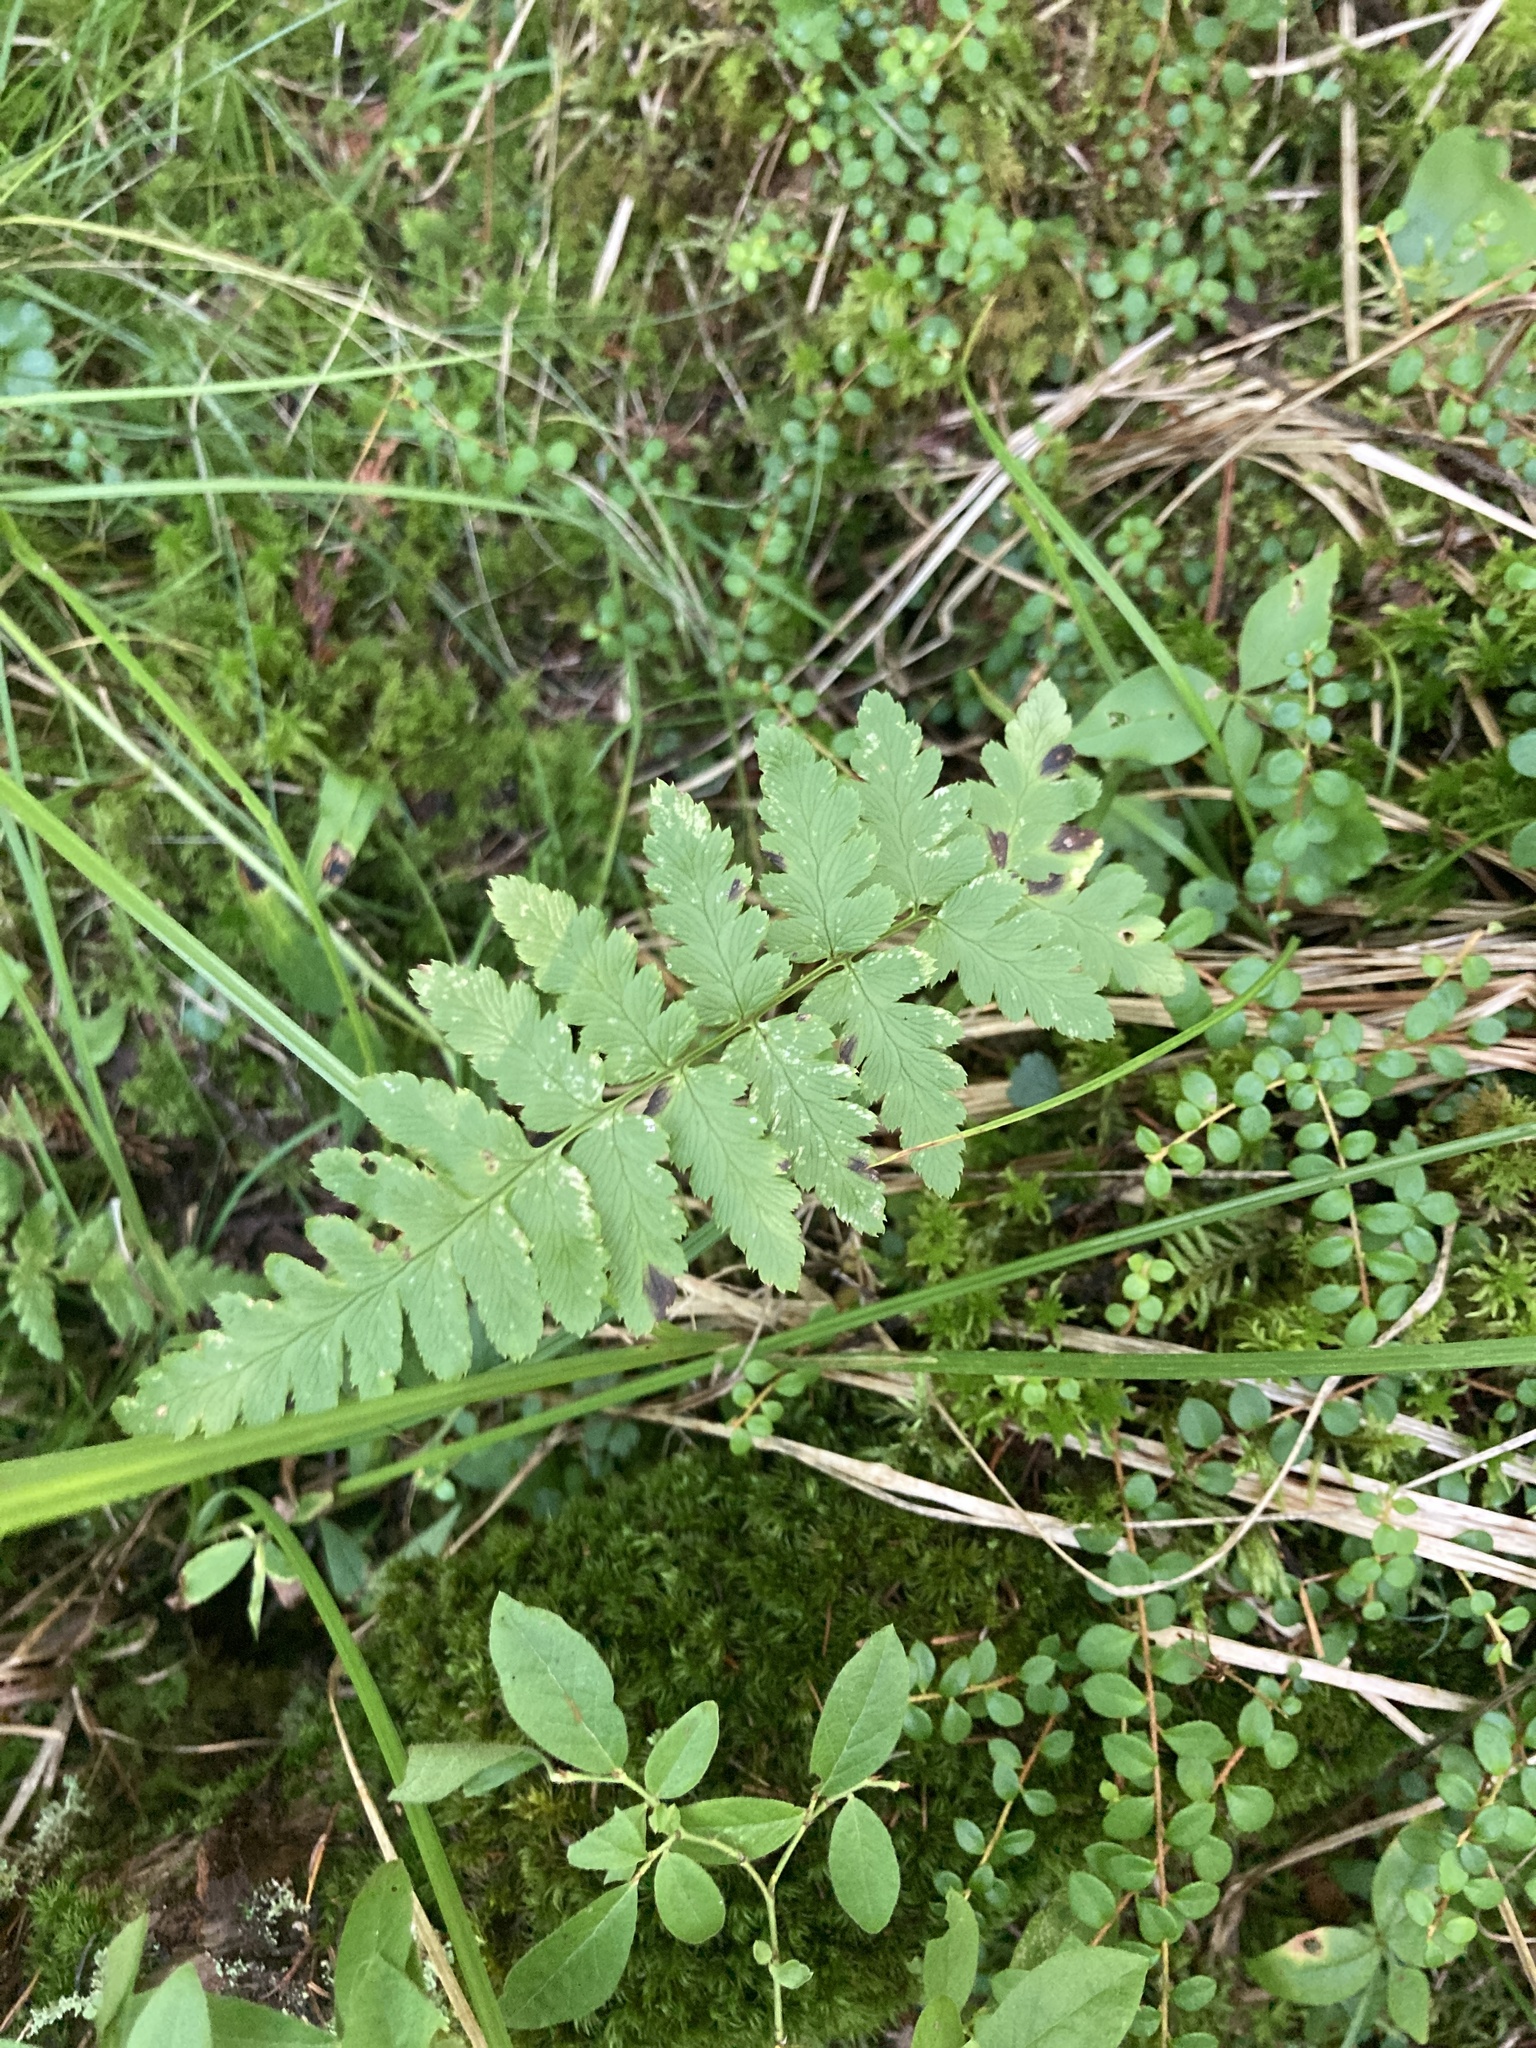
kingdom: Plantae
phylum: Tracheophyta
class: Polypodiopsida
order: Polypodiales
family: Dryopteridaceae
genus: Dryopteris
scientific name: Dryopteris cristata
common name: Crested wood fern
